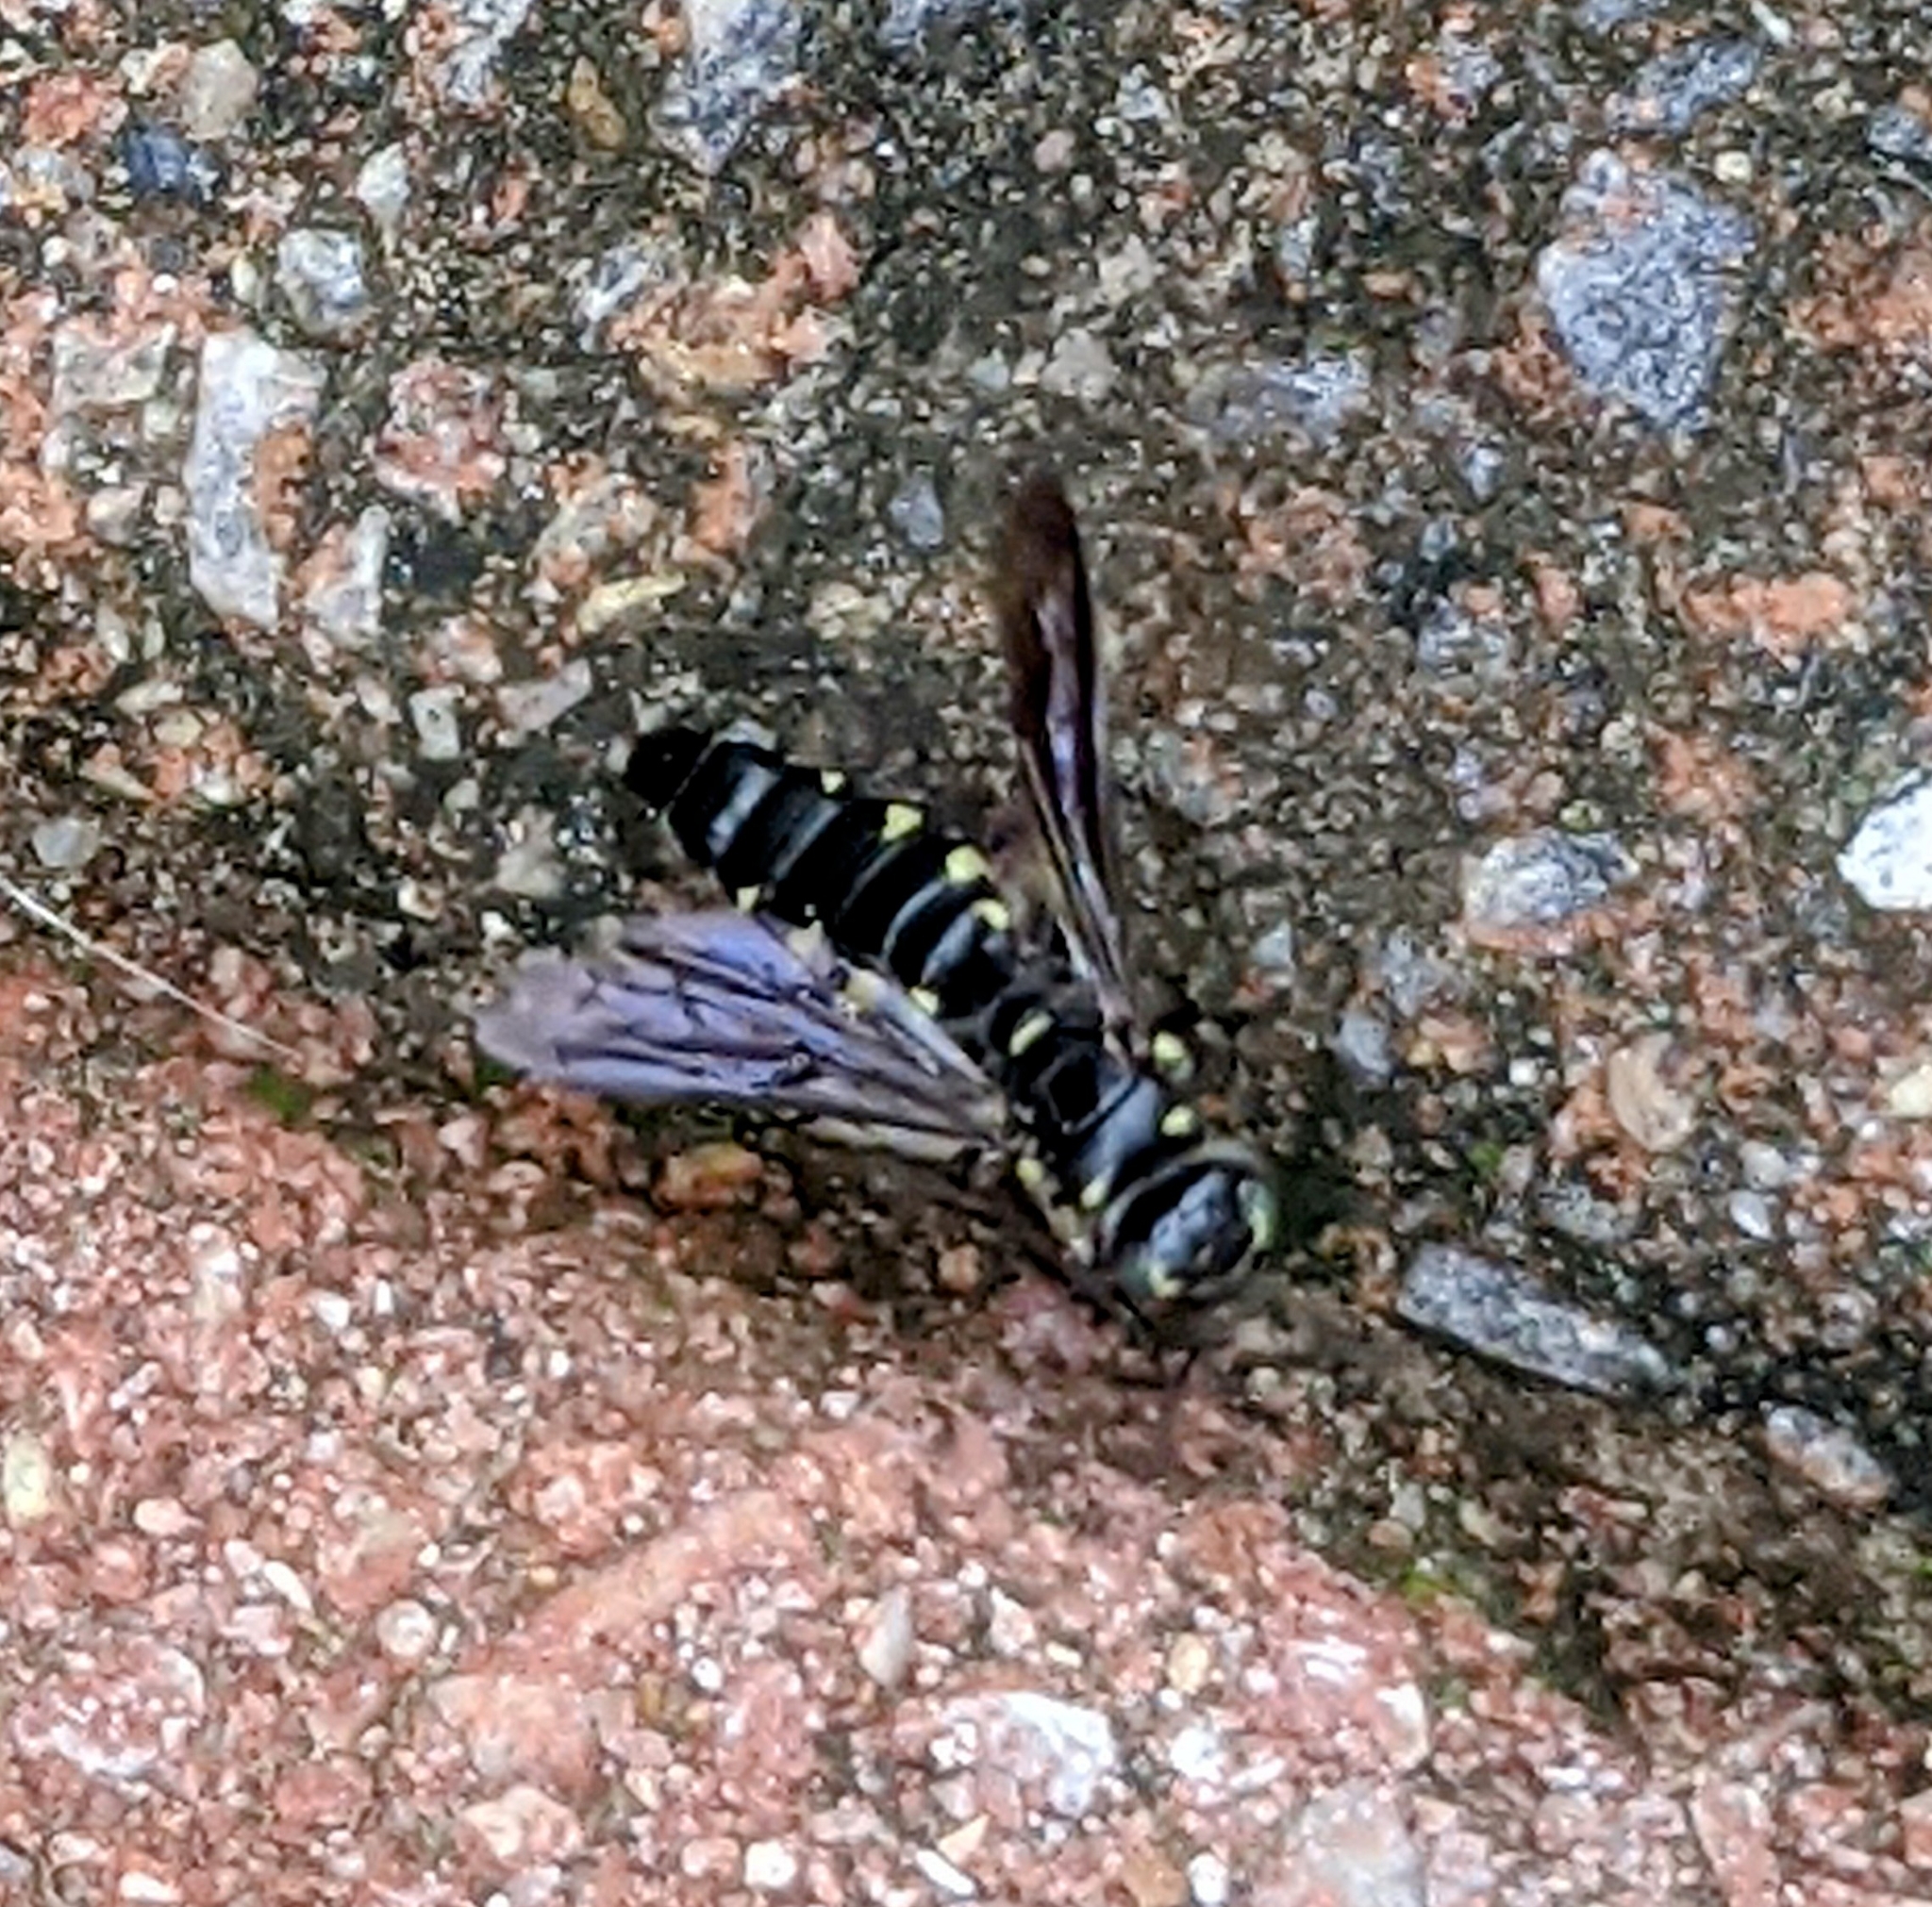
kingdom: Animalia
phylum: Arthropoda
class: Insecta
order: Hymenoptera
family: Tiphiidae
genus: Myzinum
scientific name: Myzinum obscurum
